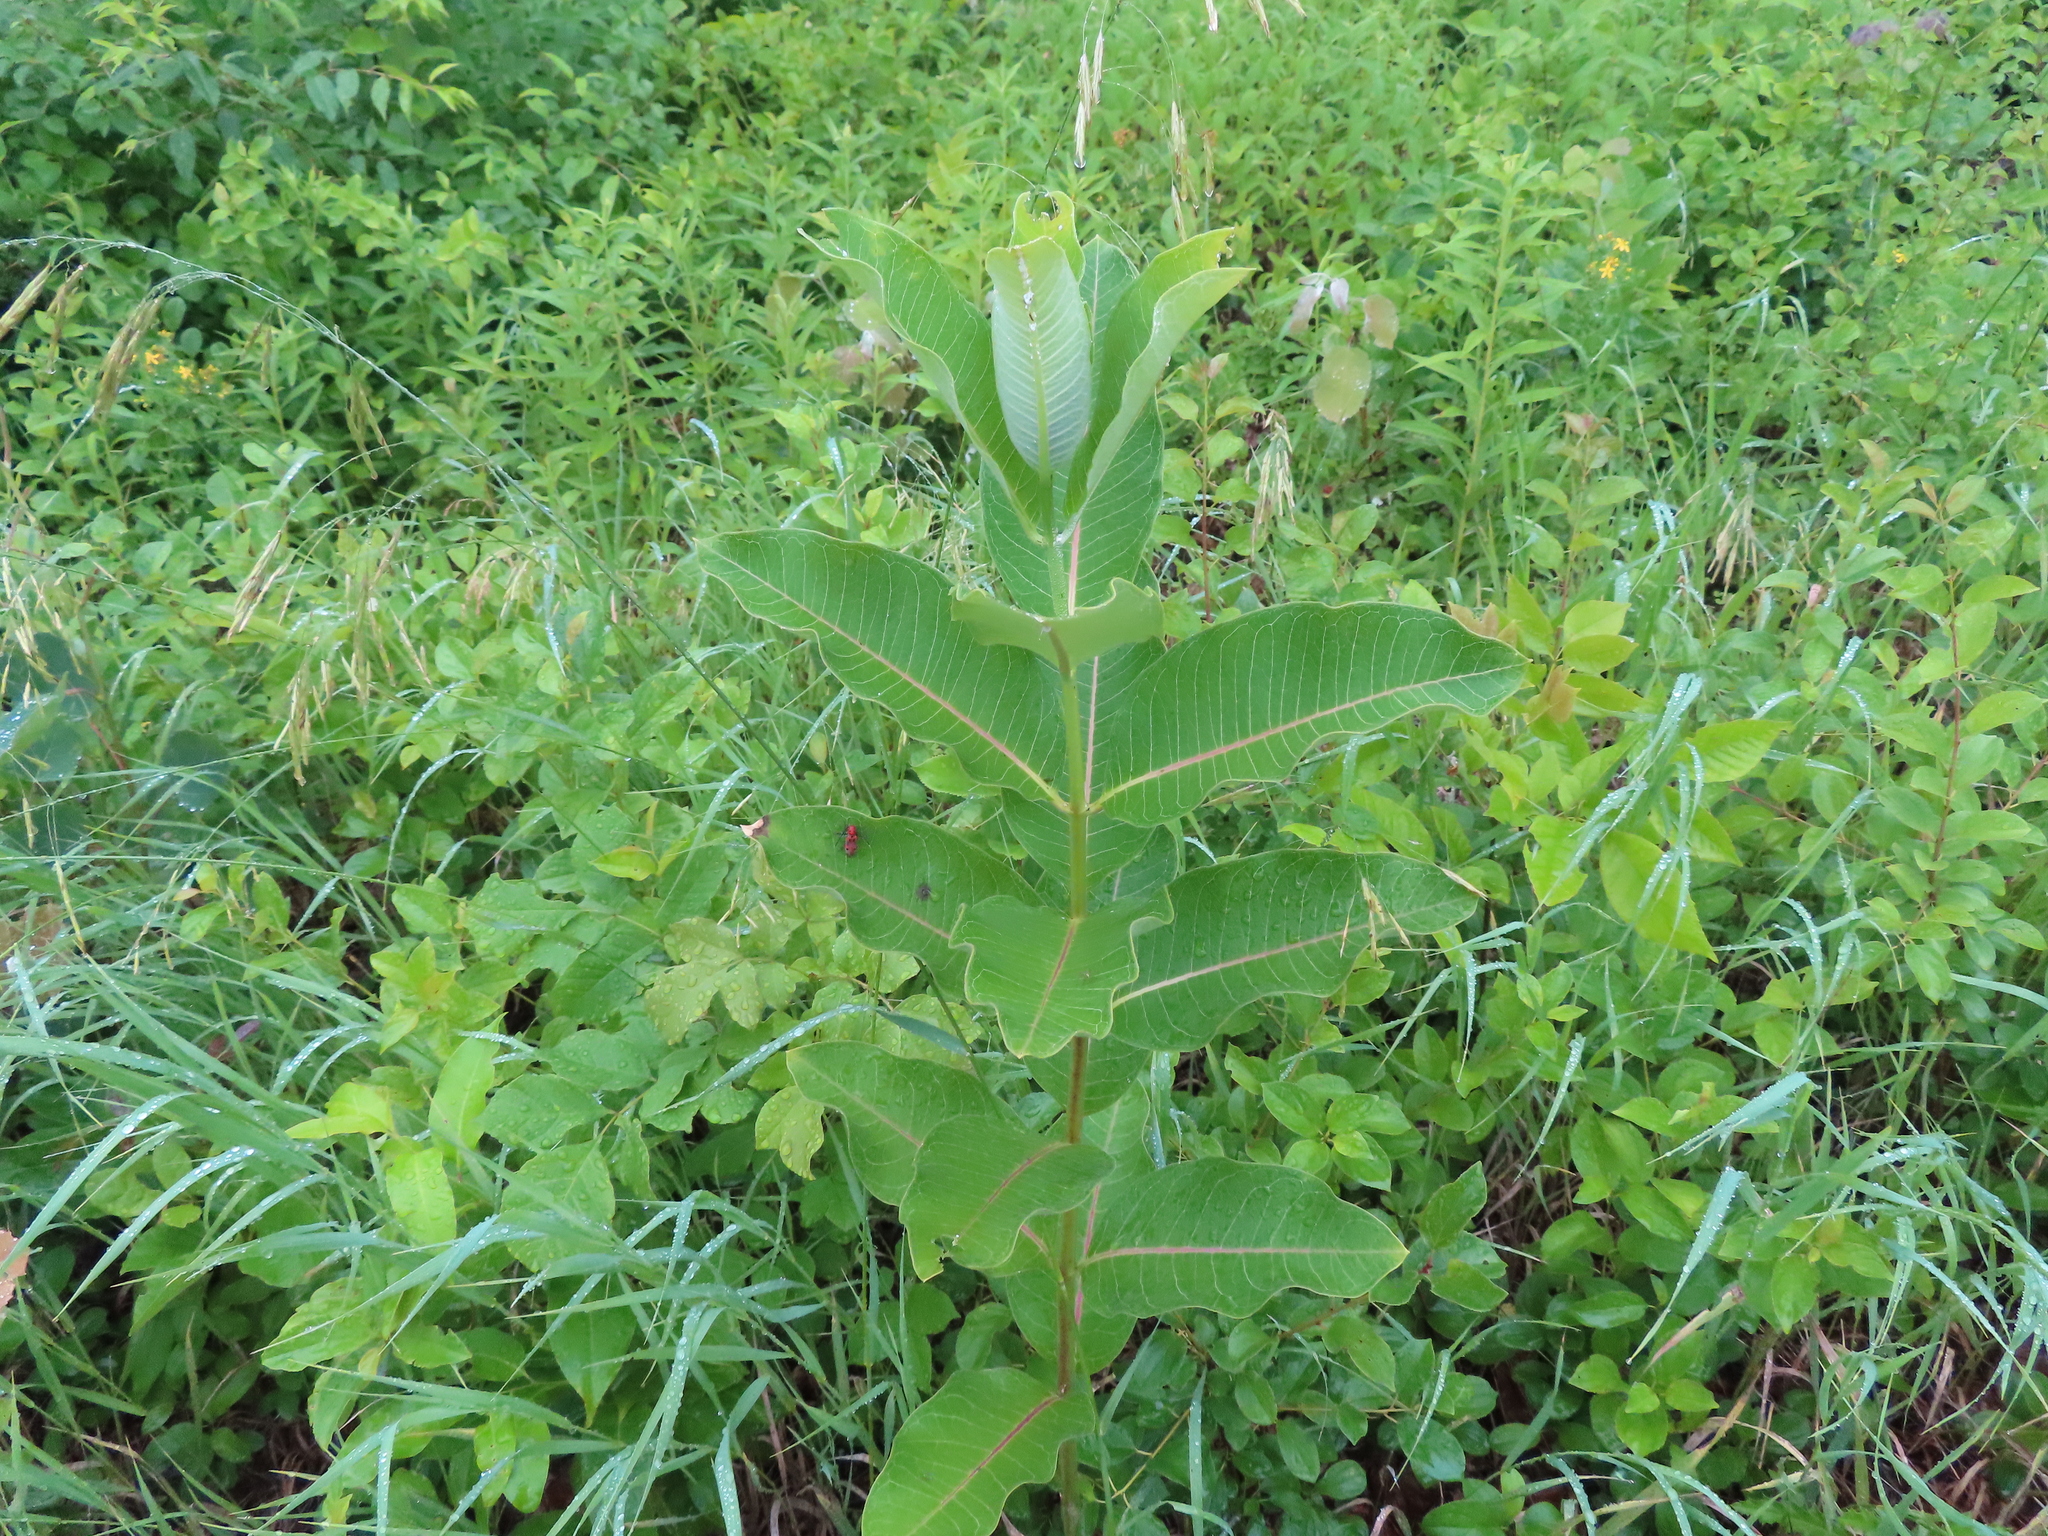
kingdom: Plantae
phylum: Tracheophyta
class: Magnoliopsida
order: Gentianales
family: Apocynaceae
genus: Asclepias
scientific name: Asclepias syriaca
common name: Common milkweed
